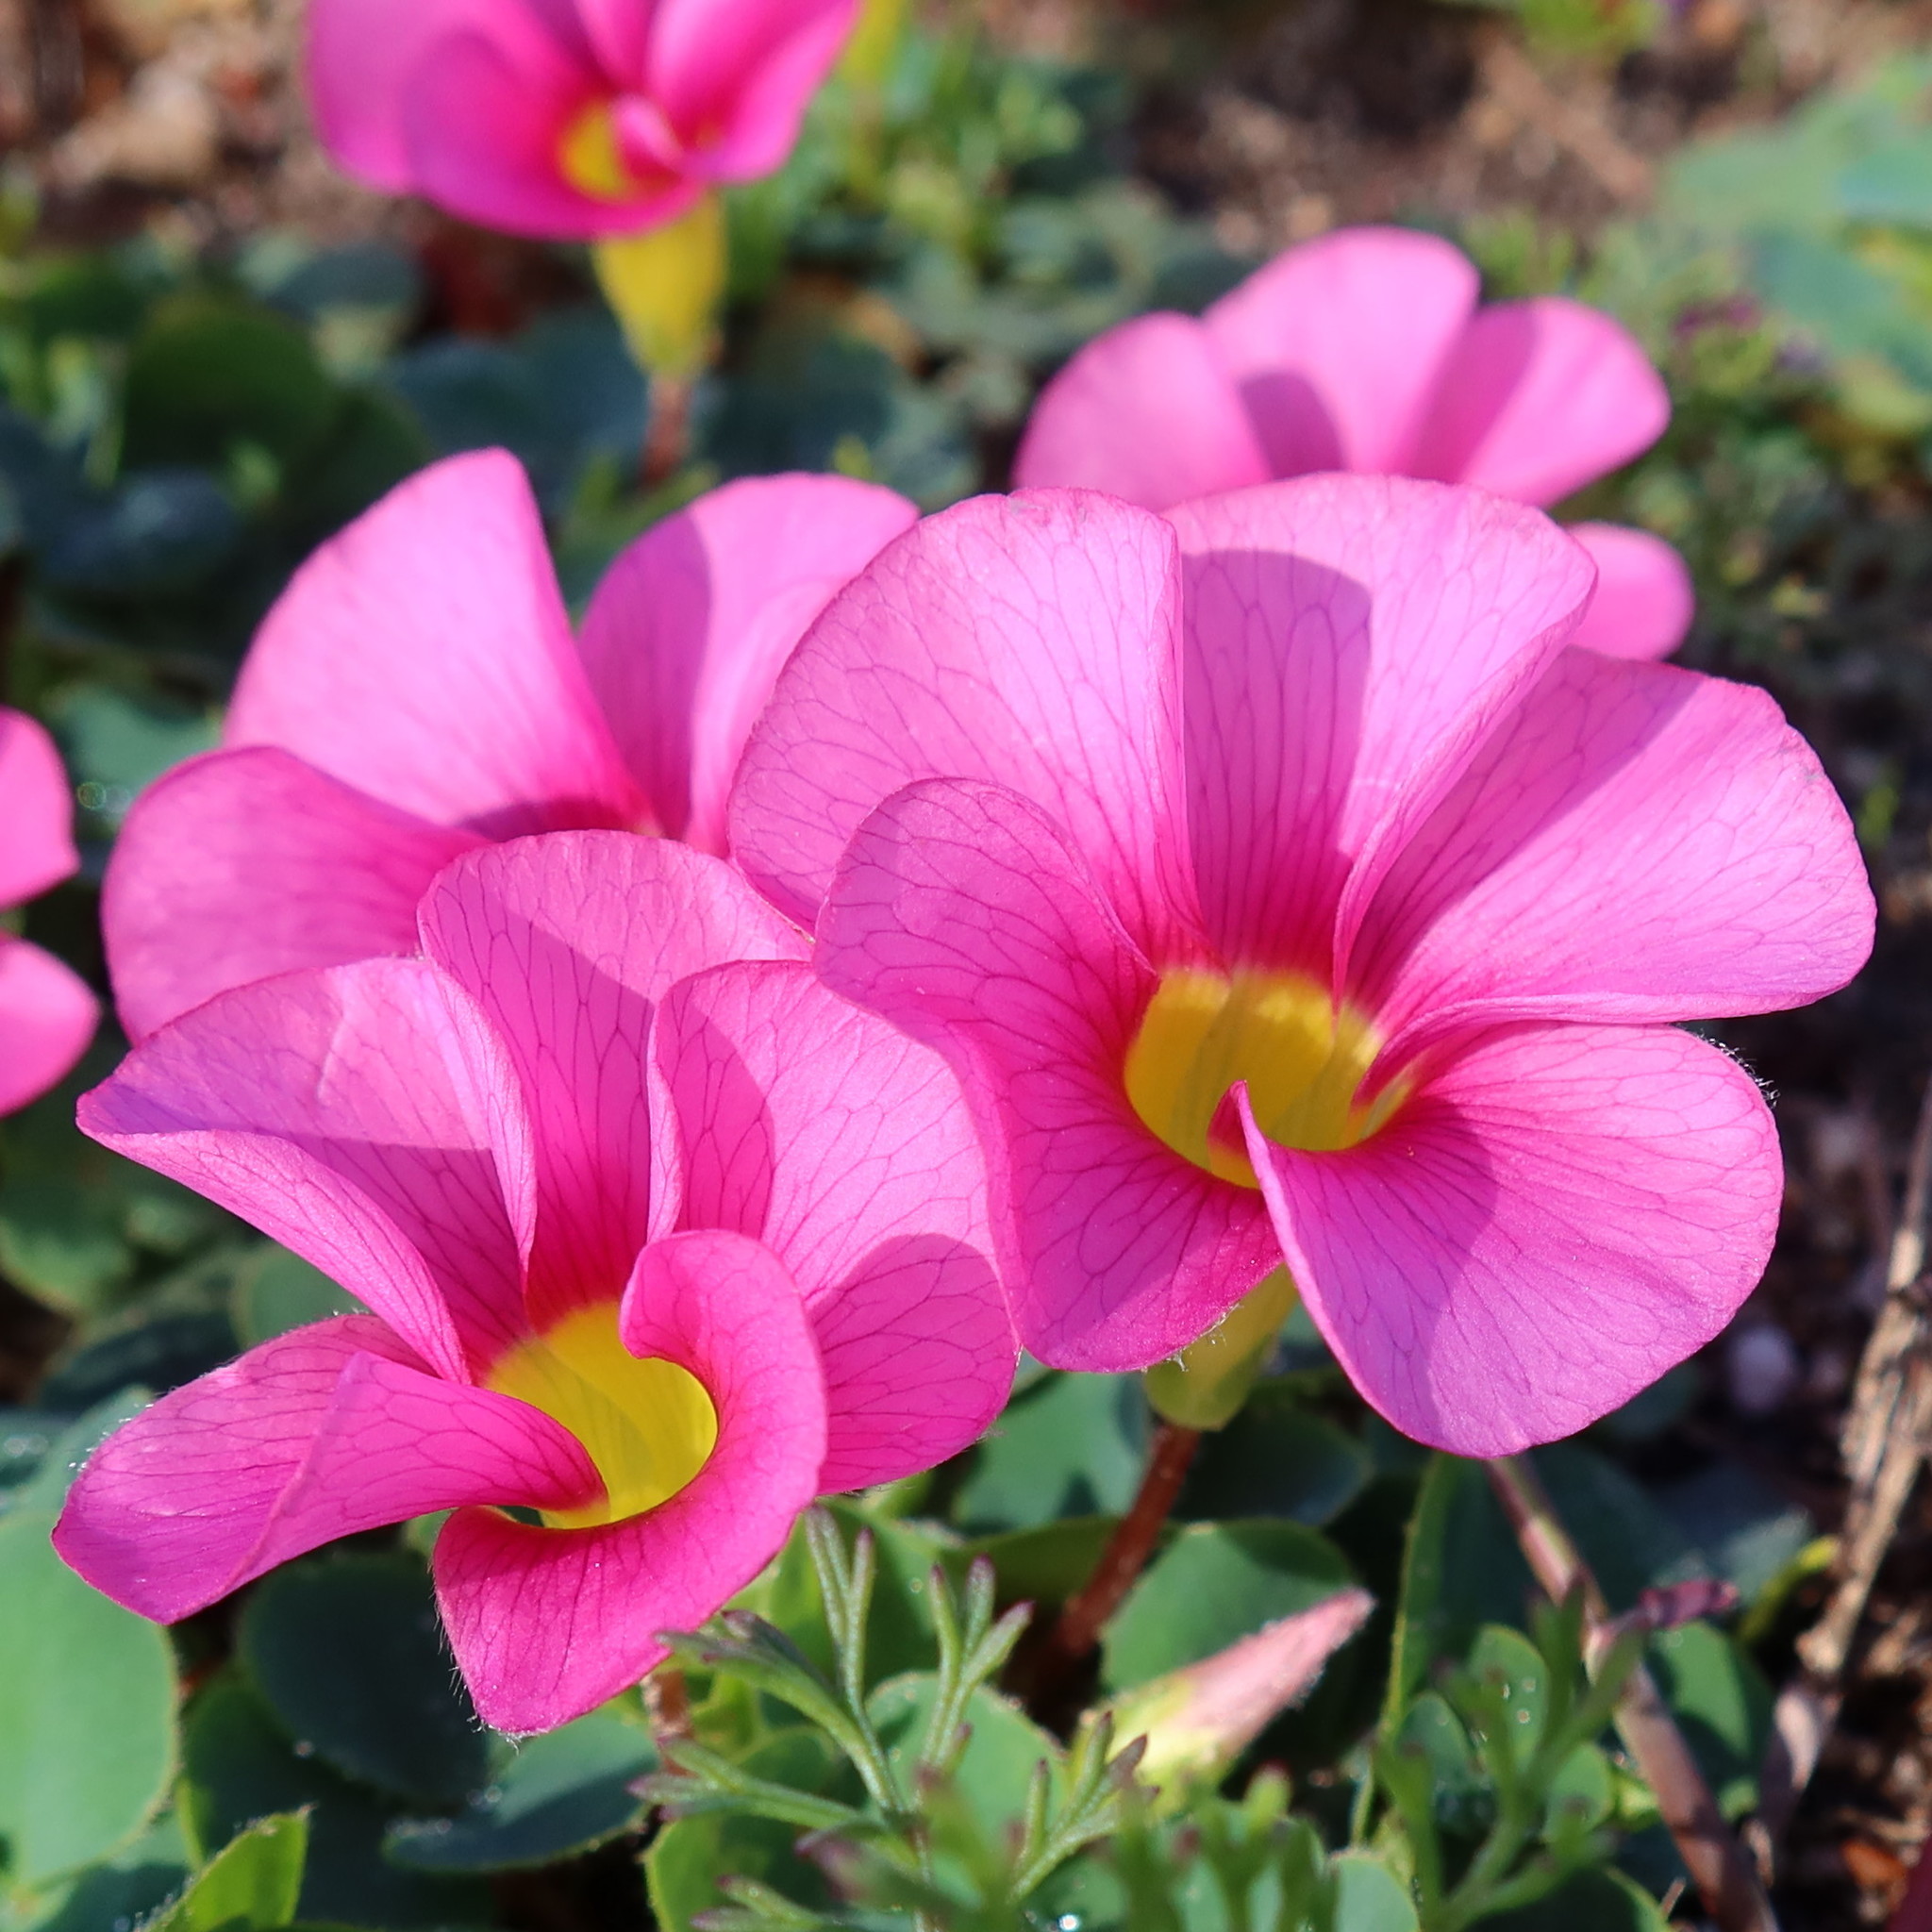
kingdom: Plantae
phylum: Tracheophyta
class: Magnoliopsida
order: Oxalidales
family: Oxalidaceae
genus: Oxalis
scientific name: Oxalis purpurea
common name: Purple woodsorrel
